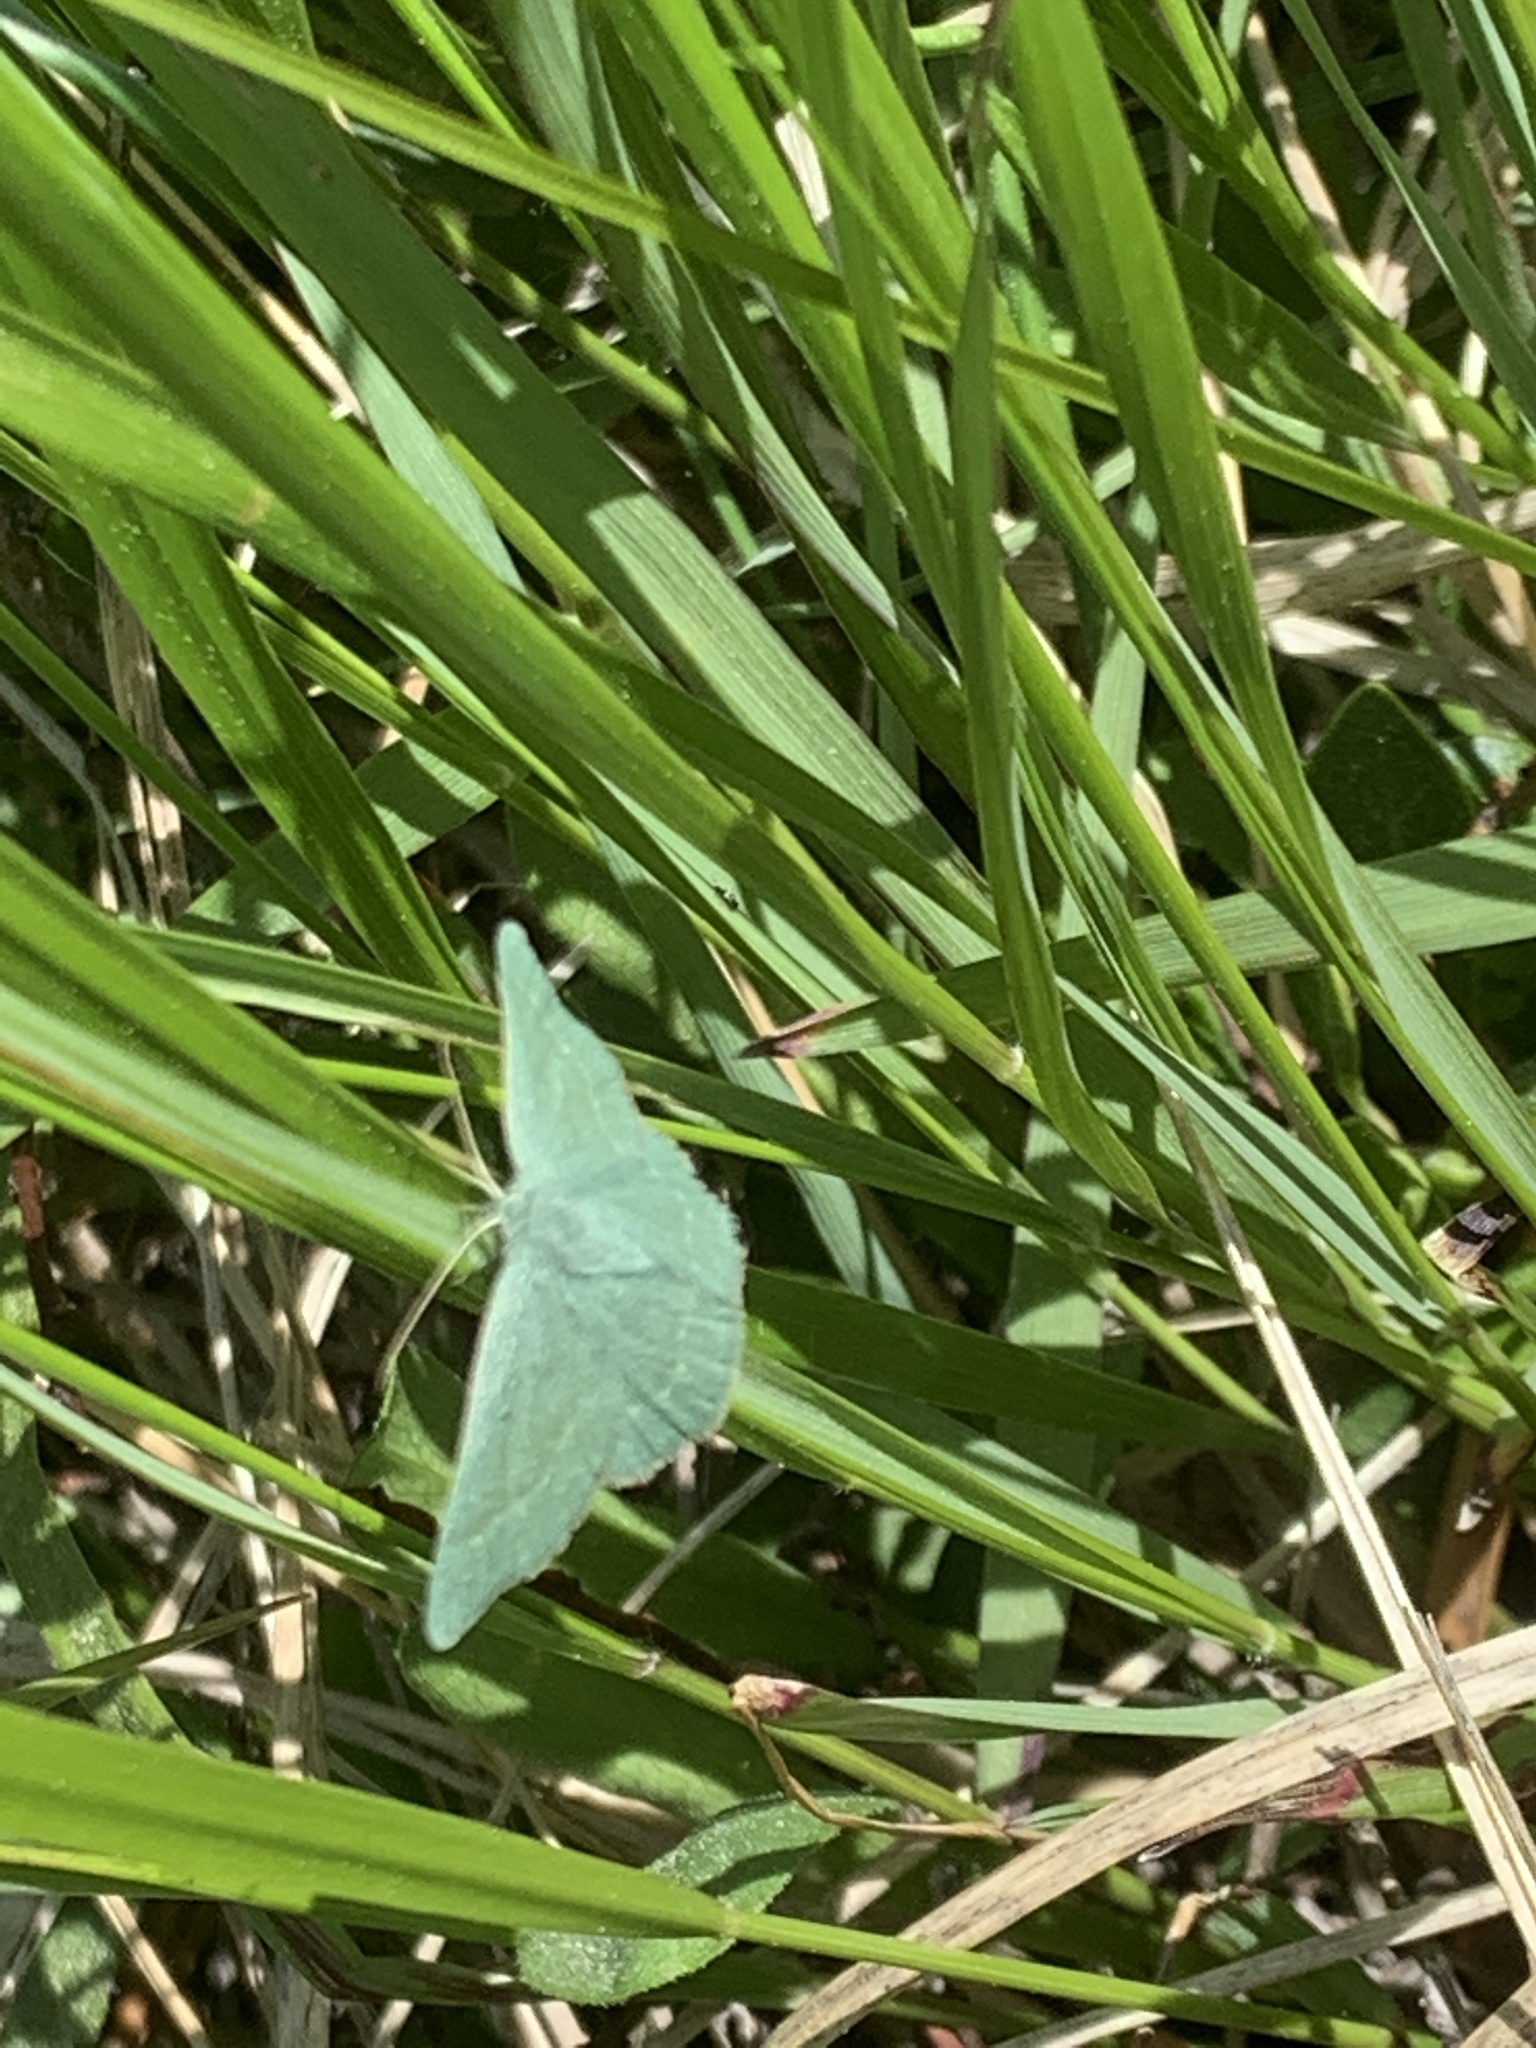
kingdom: Animalia
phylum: Arthropoda
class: Insecta
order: Lepidoptera
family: Geometridae
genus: Mesothea
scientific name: Mesothea incertata
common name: Day emerald moth
